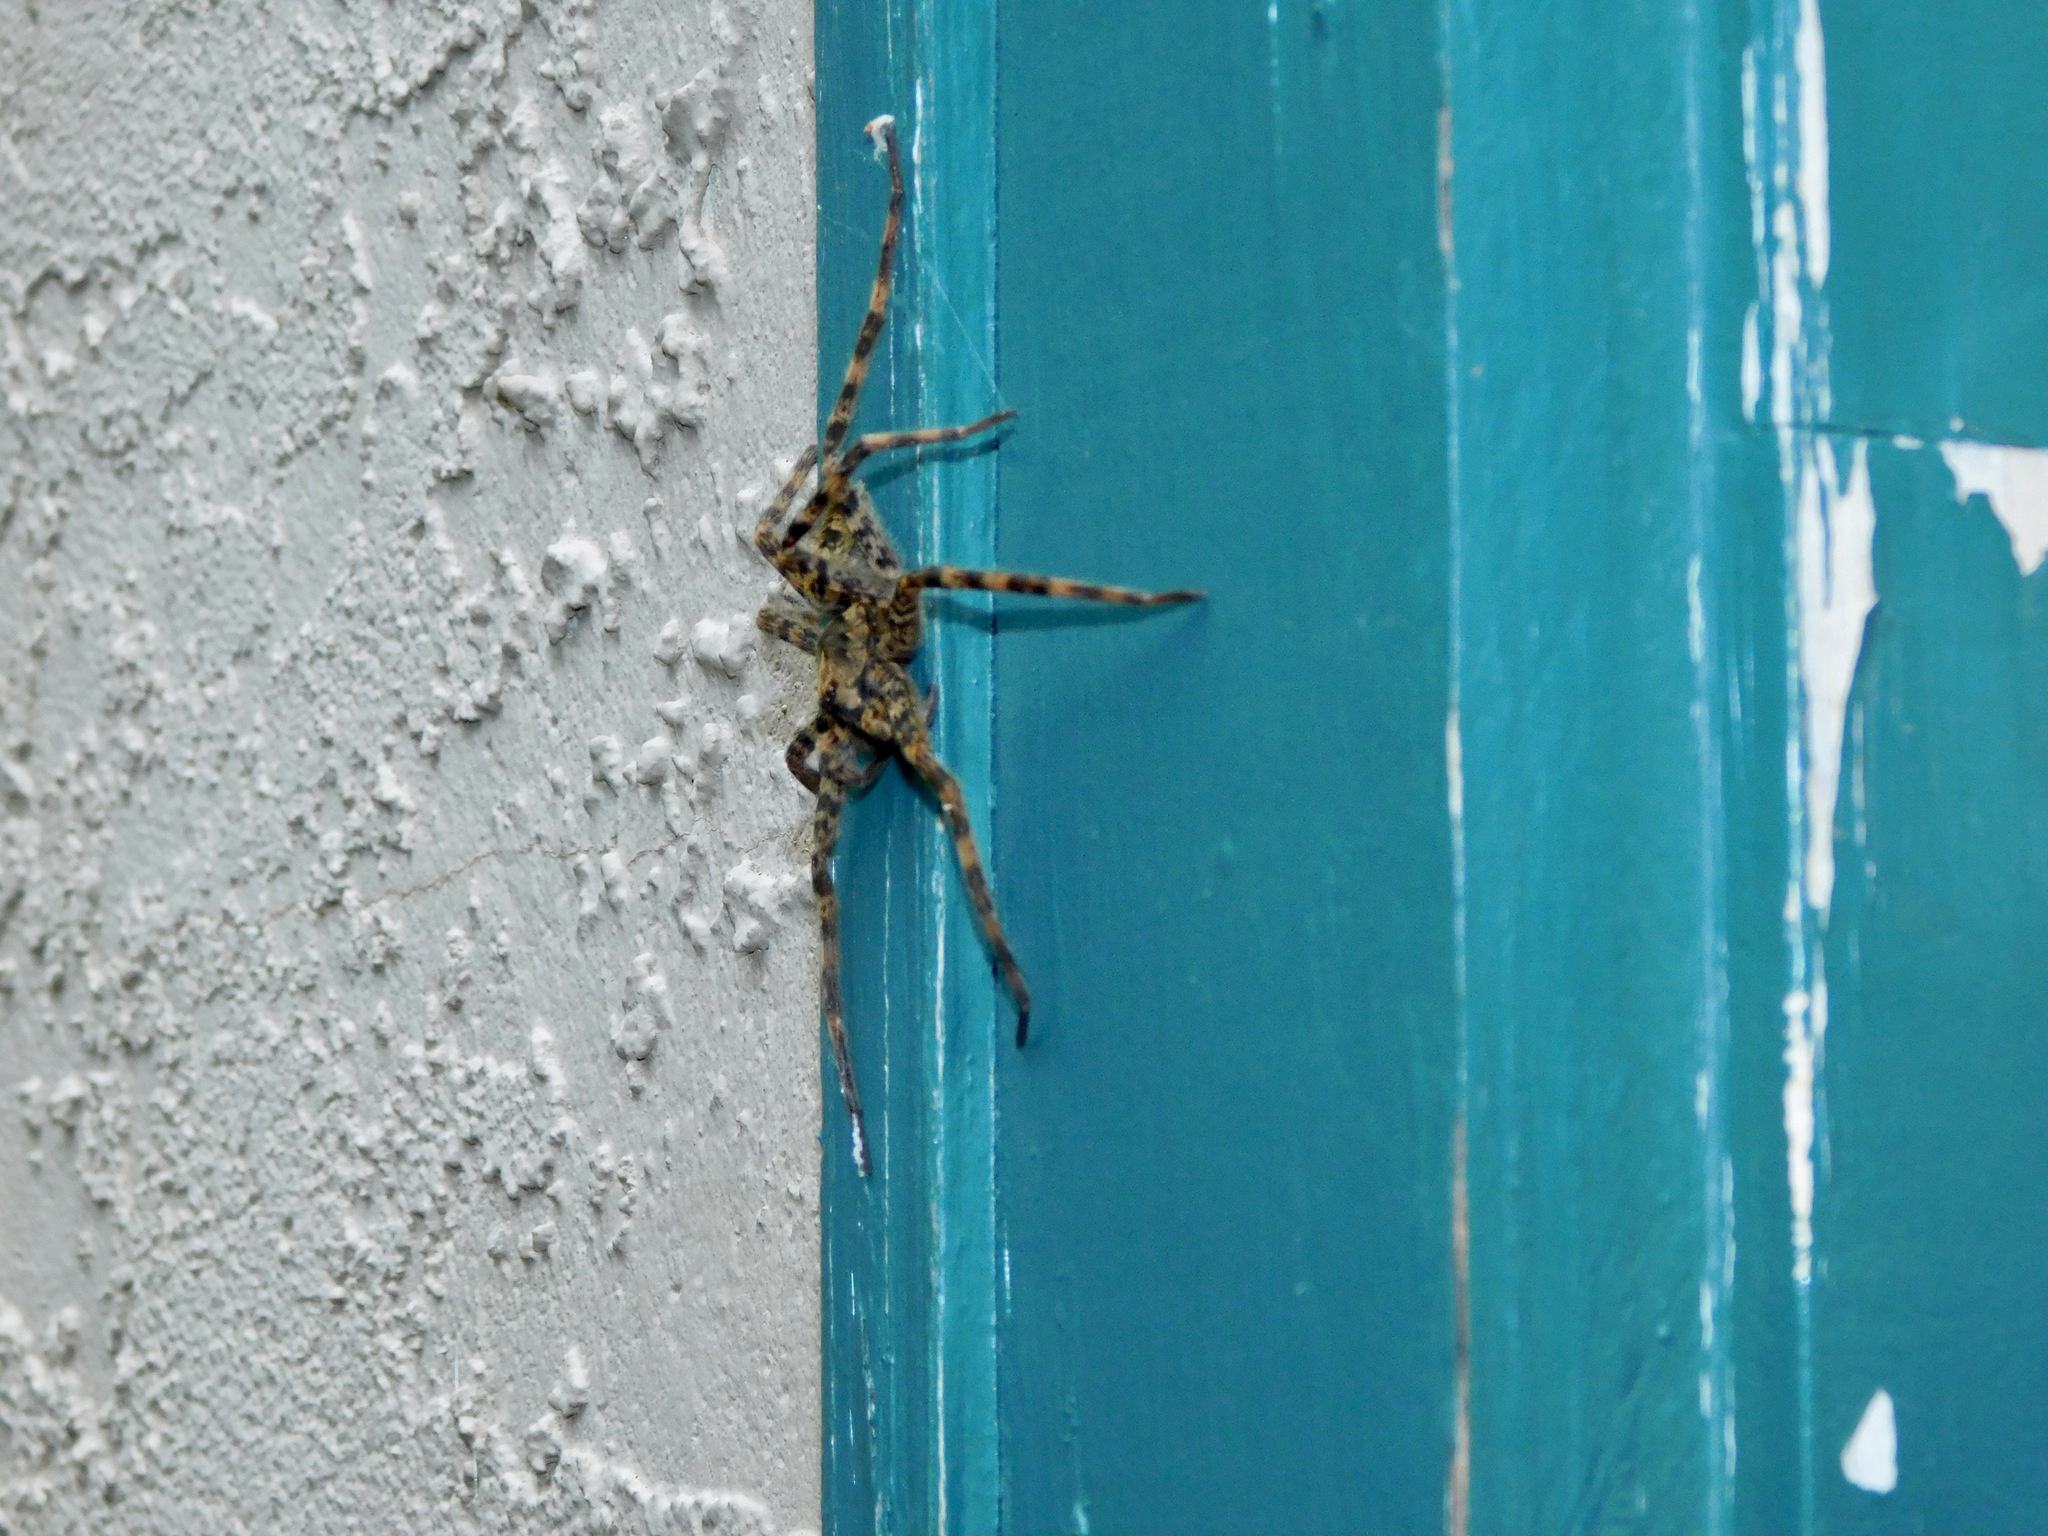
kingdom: Animalia
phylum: Arthropoda
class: Arachnida
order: Araneae
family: Pisauridae
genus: Dolomedes
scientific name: Dolomedes tenebrosus
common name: Dark fishing spider
